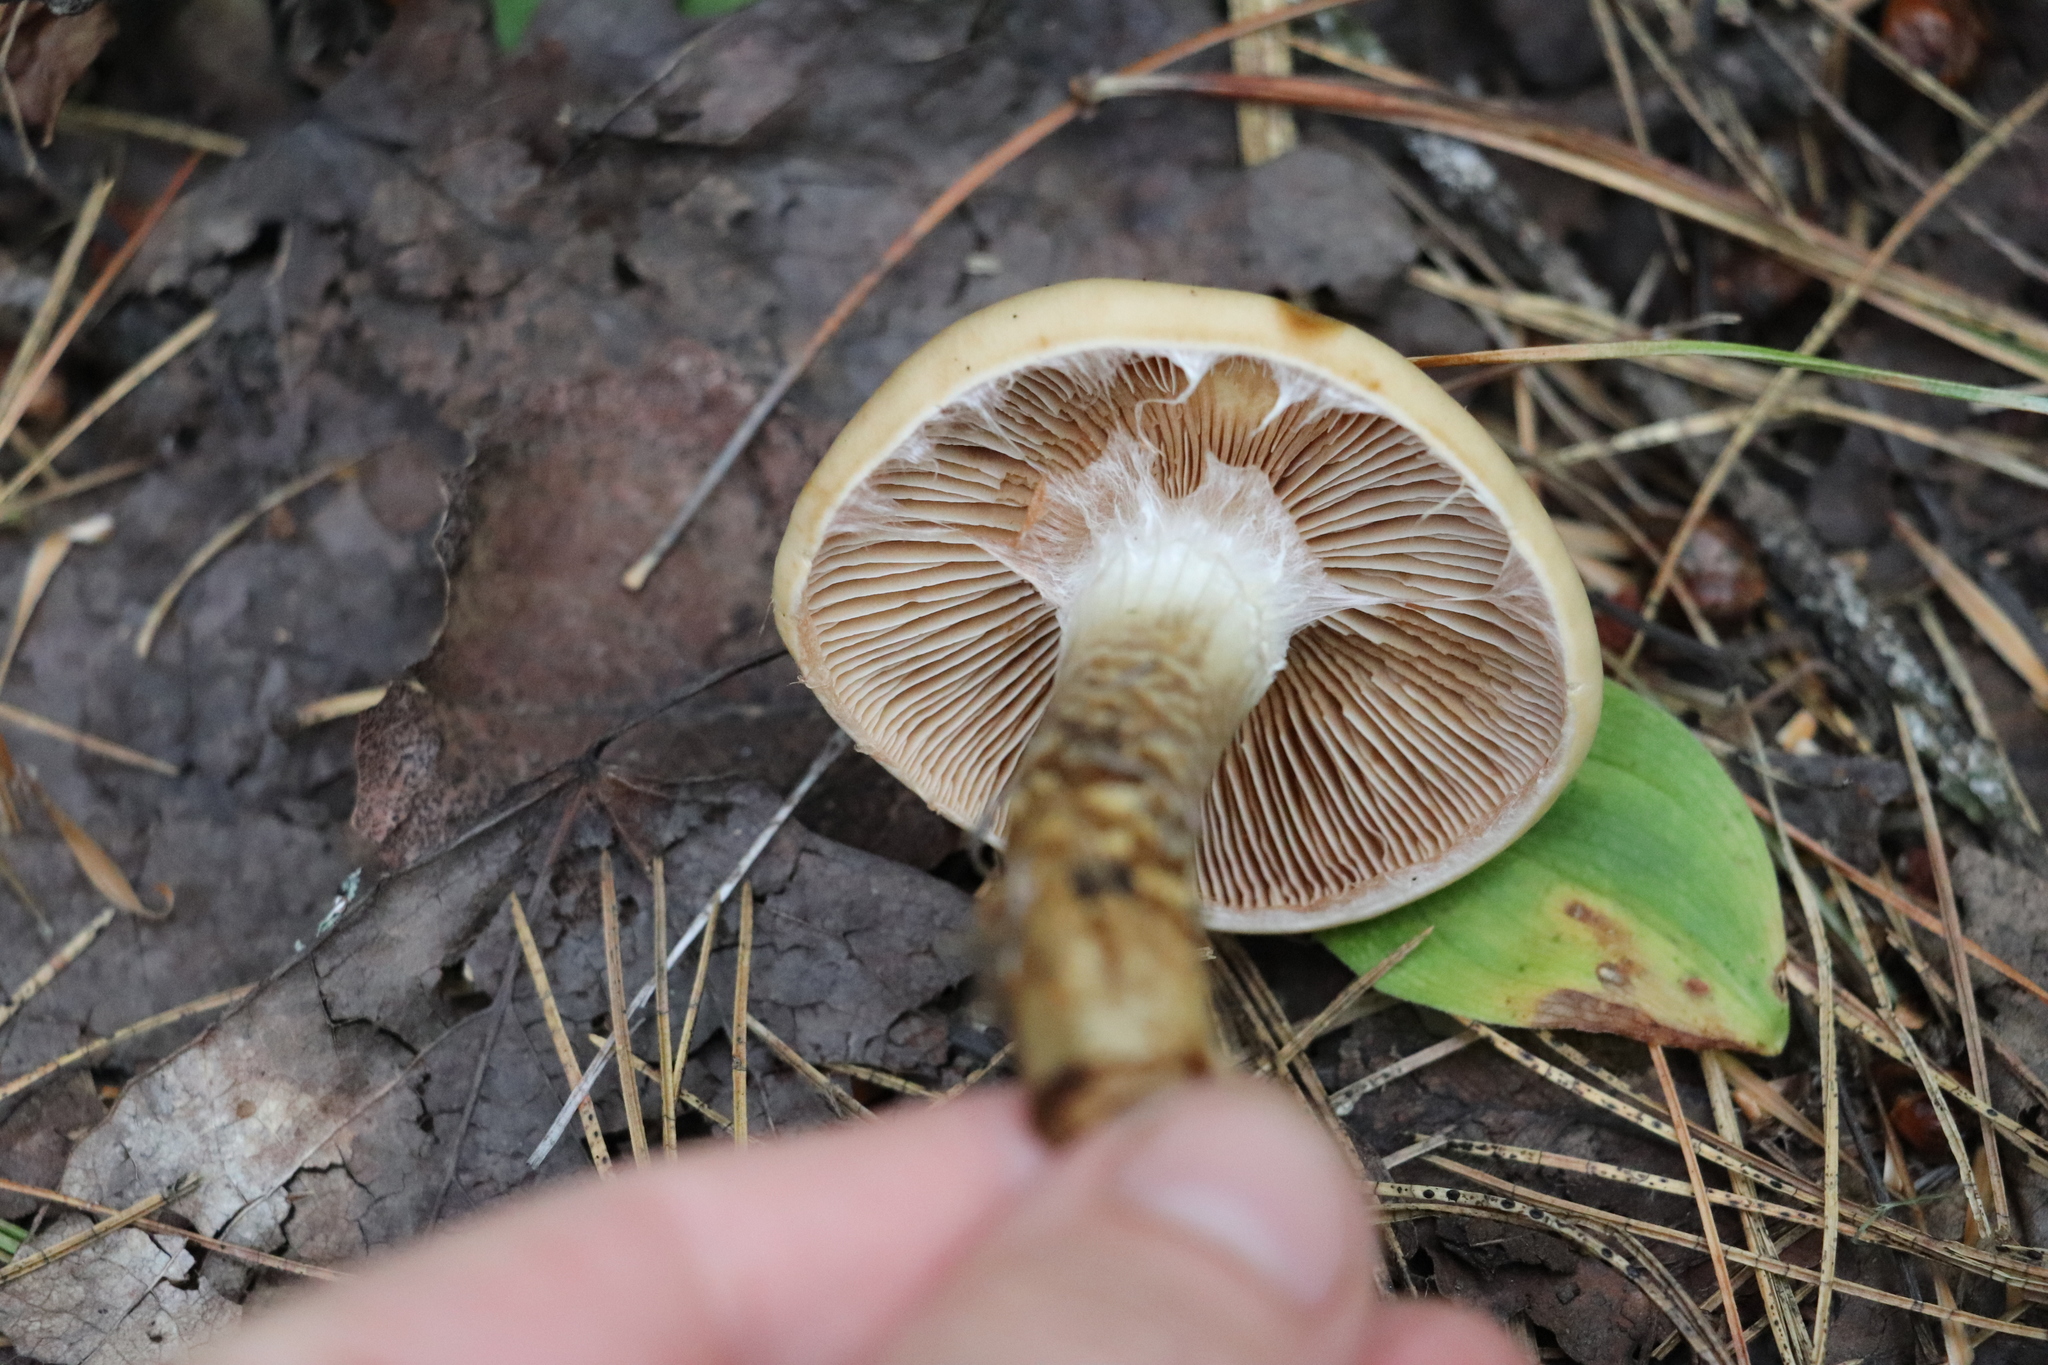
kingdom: Fungi
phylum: Basidiomycota
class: Agaricomycetes
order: Agaricales
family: Cortinariaceae
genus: Cortinarius
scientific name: Cortinarius trivialis
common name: Girdled webcap
